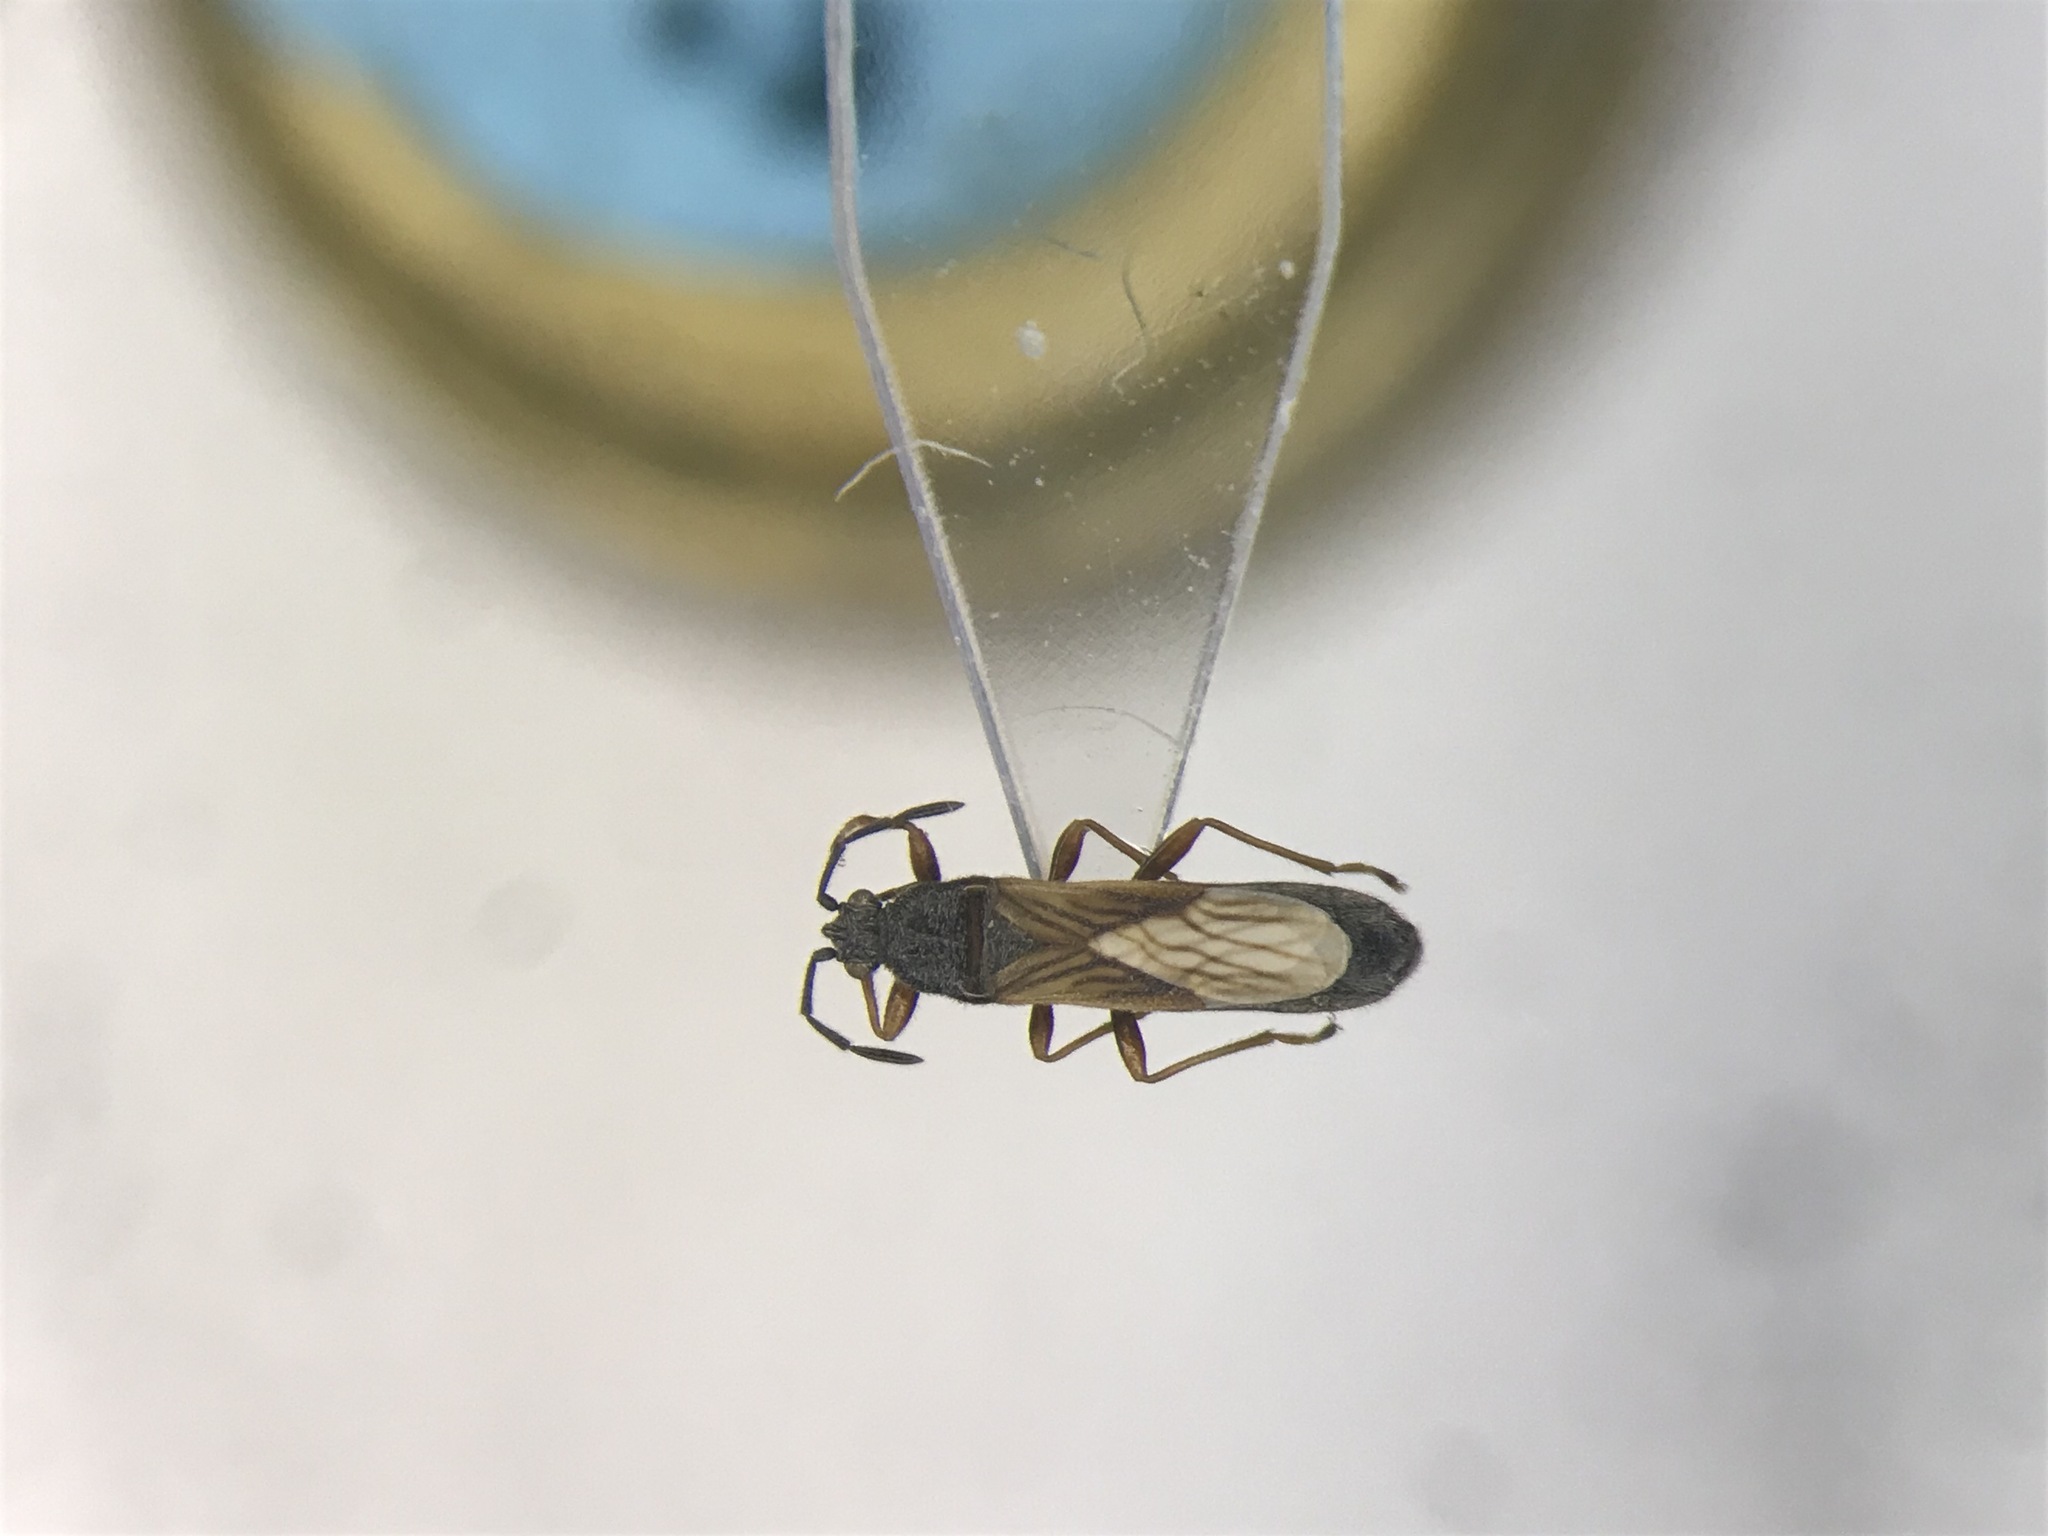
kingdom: Animalia
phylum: Arthropoda
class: Insecta
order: Hemiptera
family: Blissidae
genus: Ischnodemus
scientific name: Ischnodemus falicus
